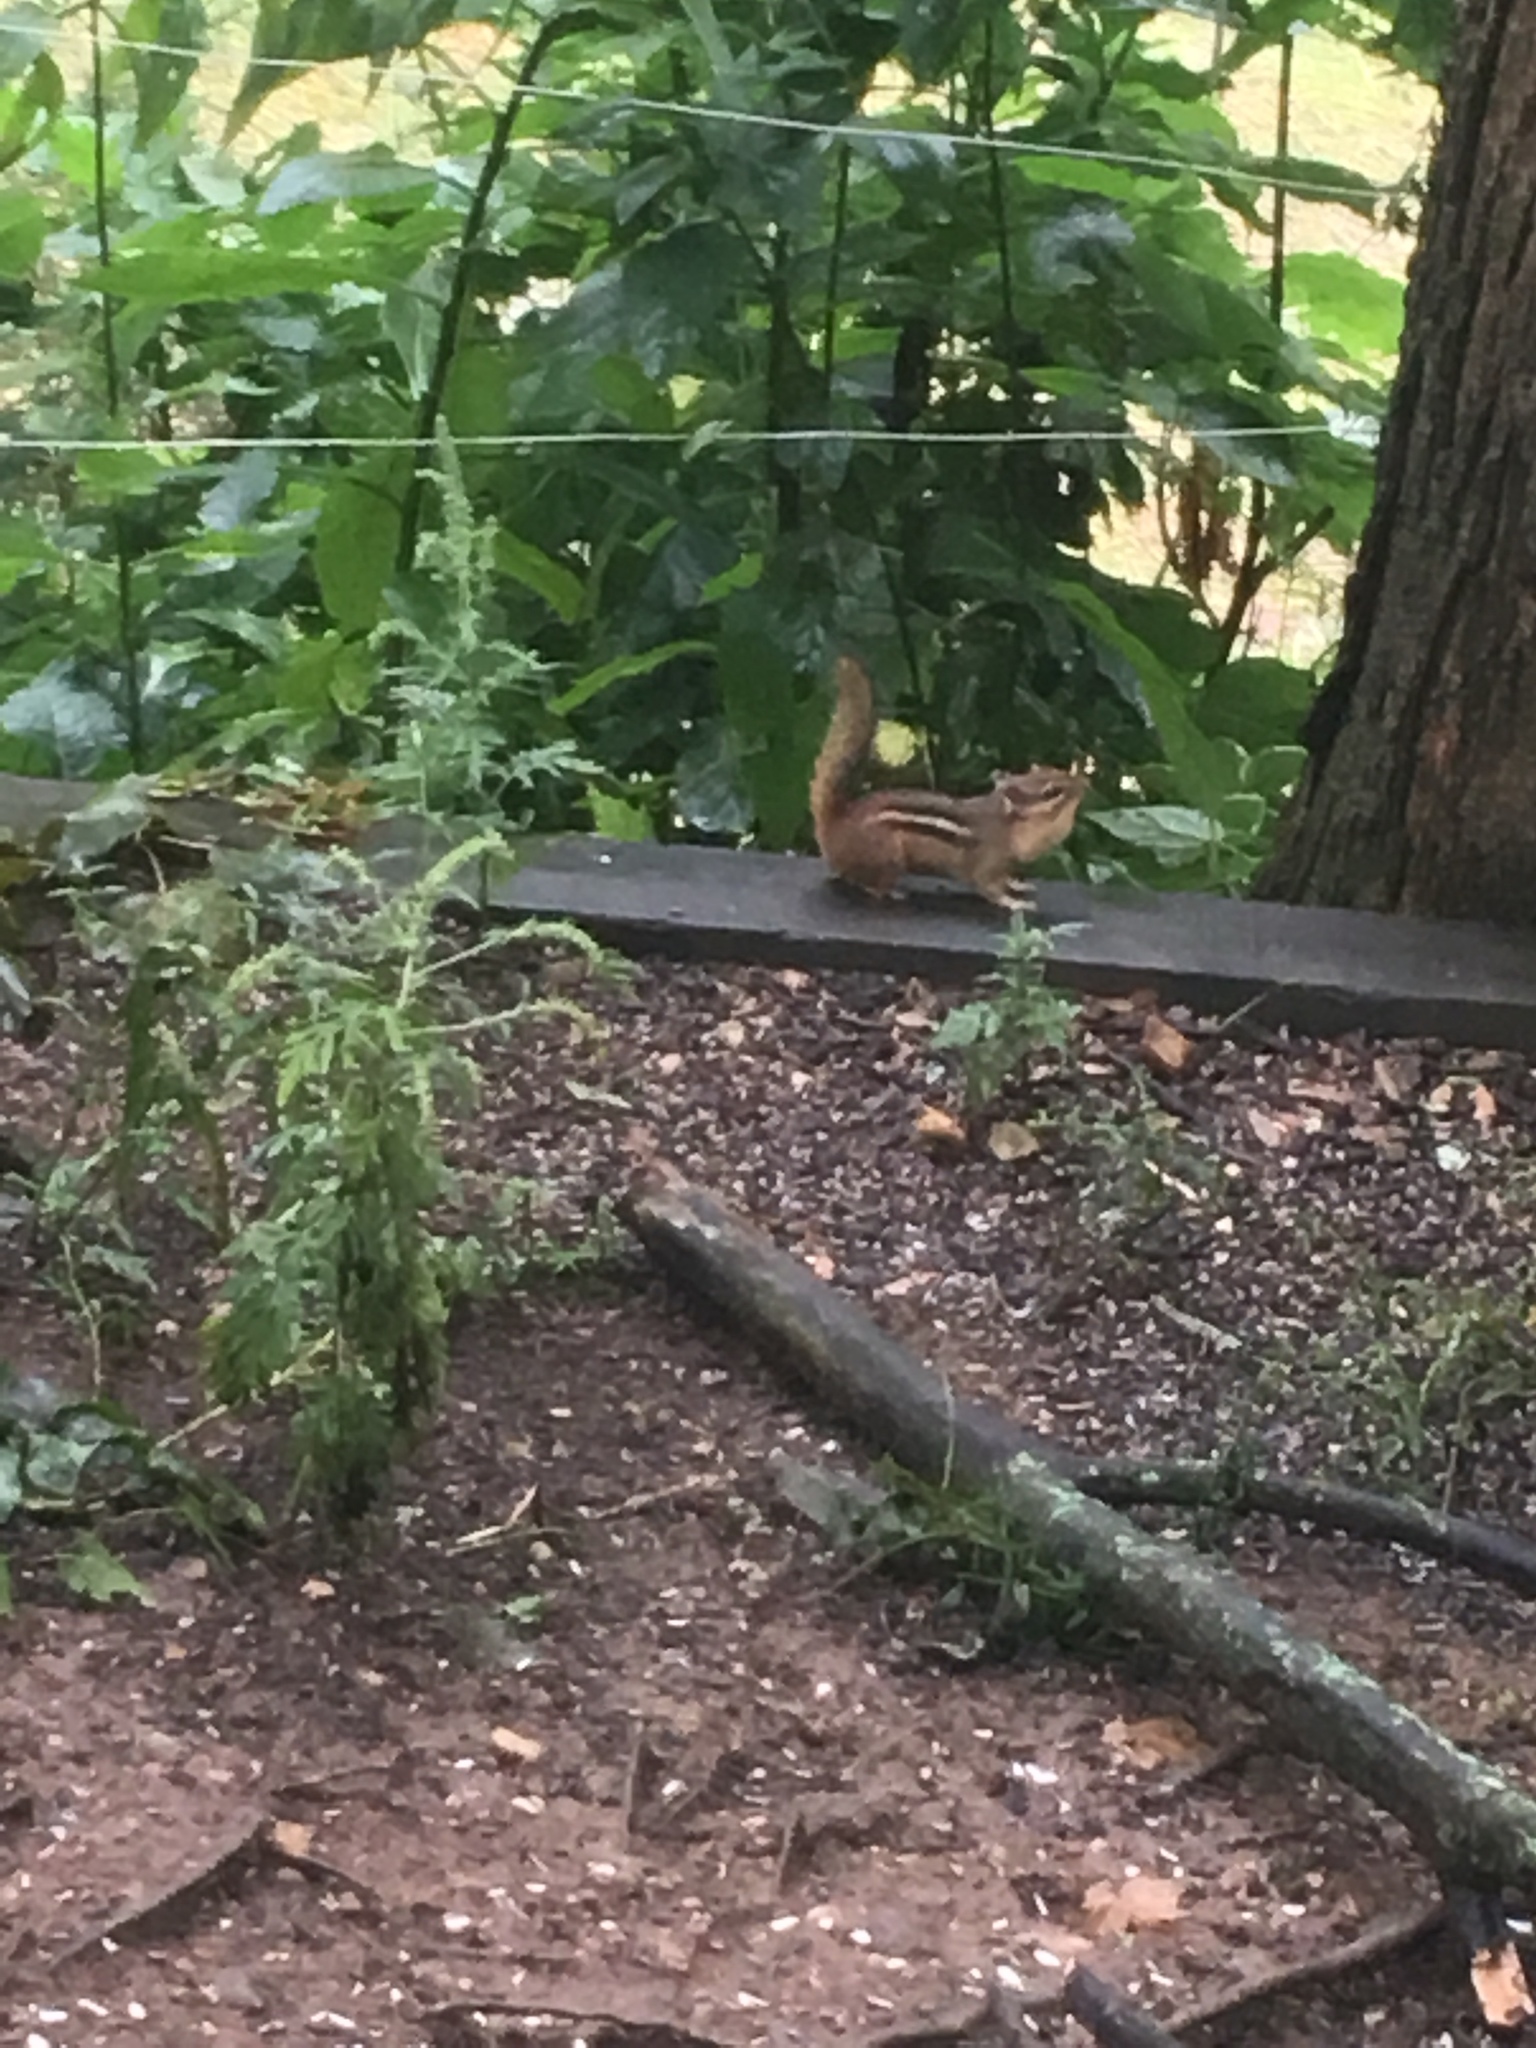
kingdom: Animalia
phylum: Chordata
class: Mammalia
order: Rodentia
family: Sciuridae
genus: Tamias
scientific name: Tamias striatus
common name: Eastern chipmunk
